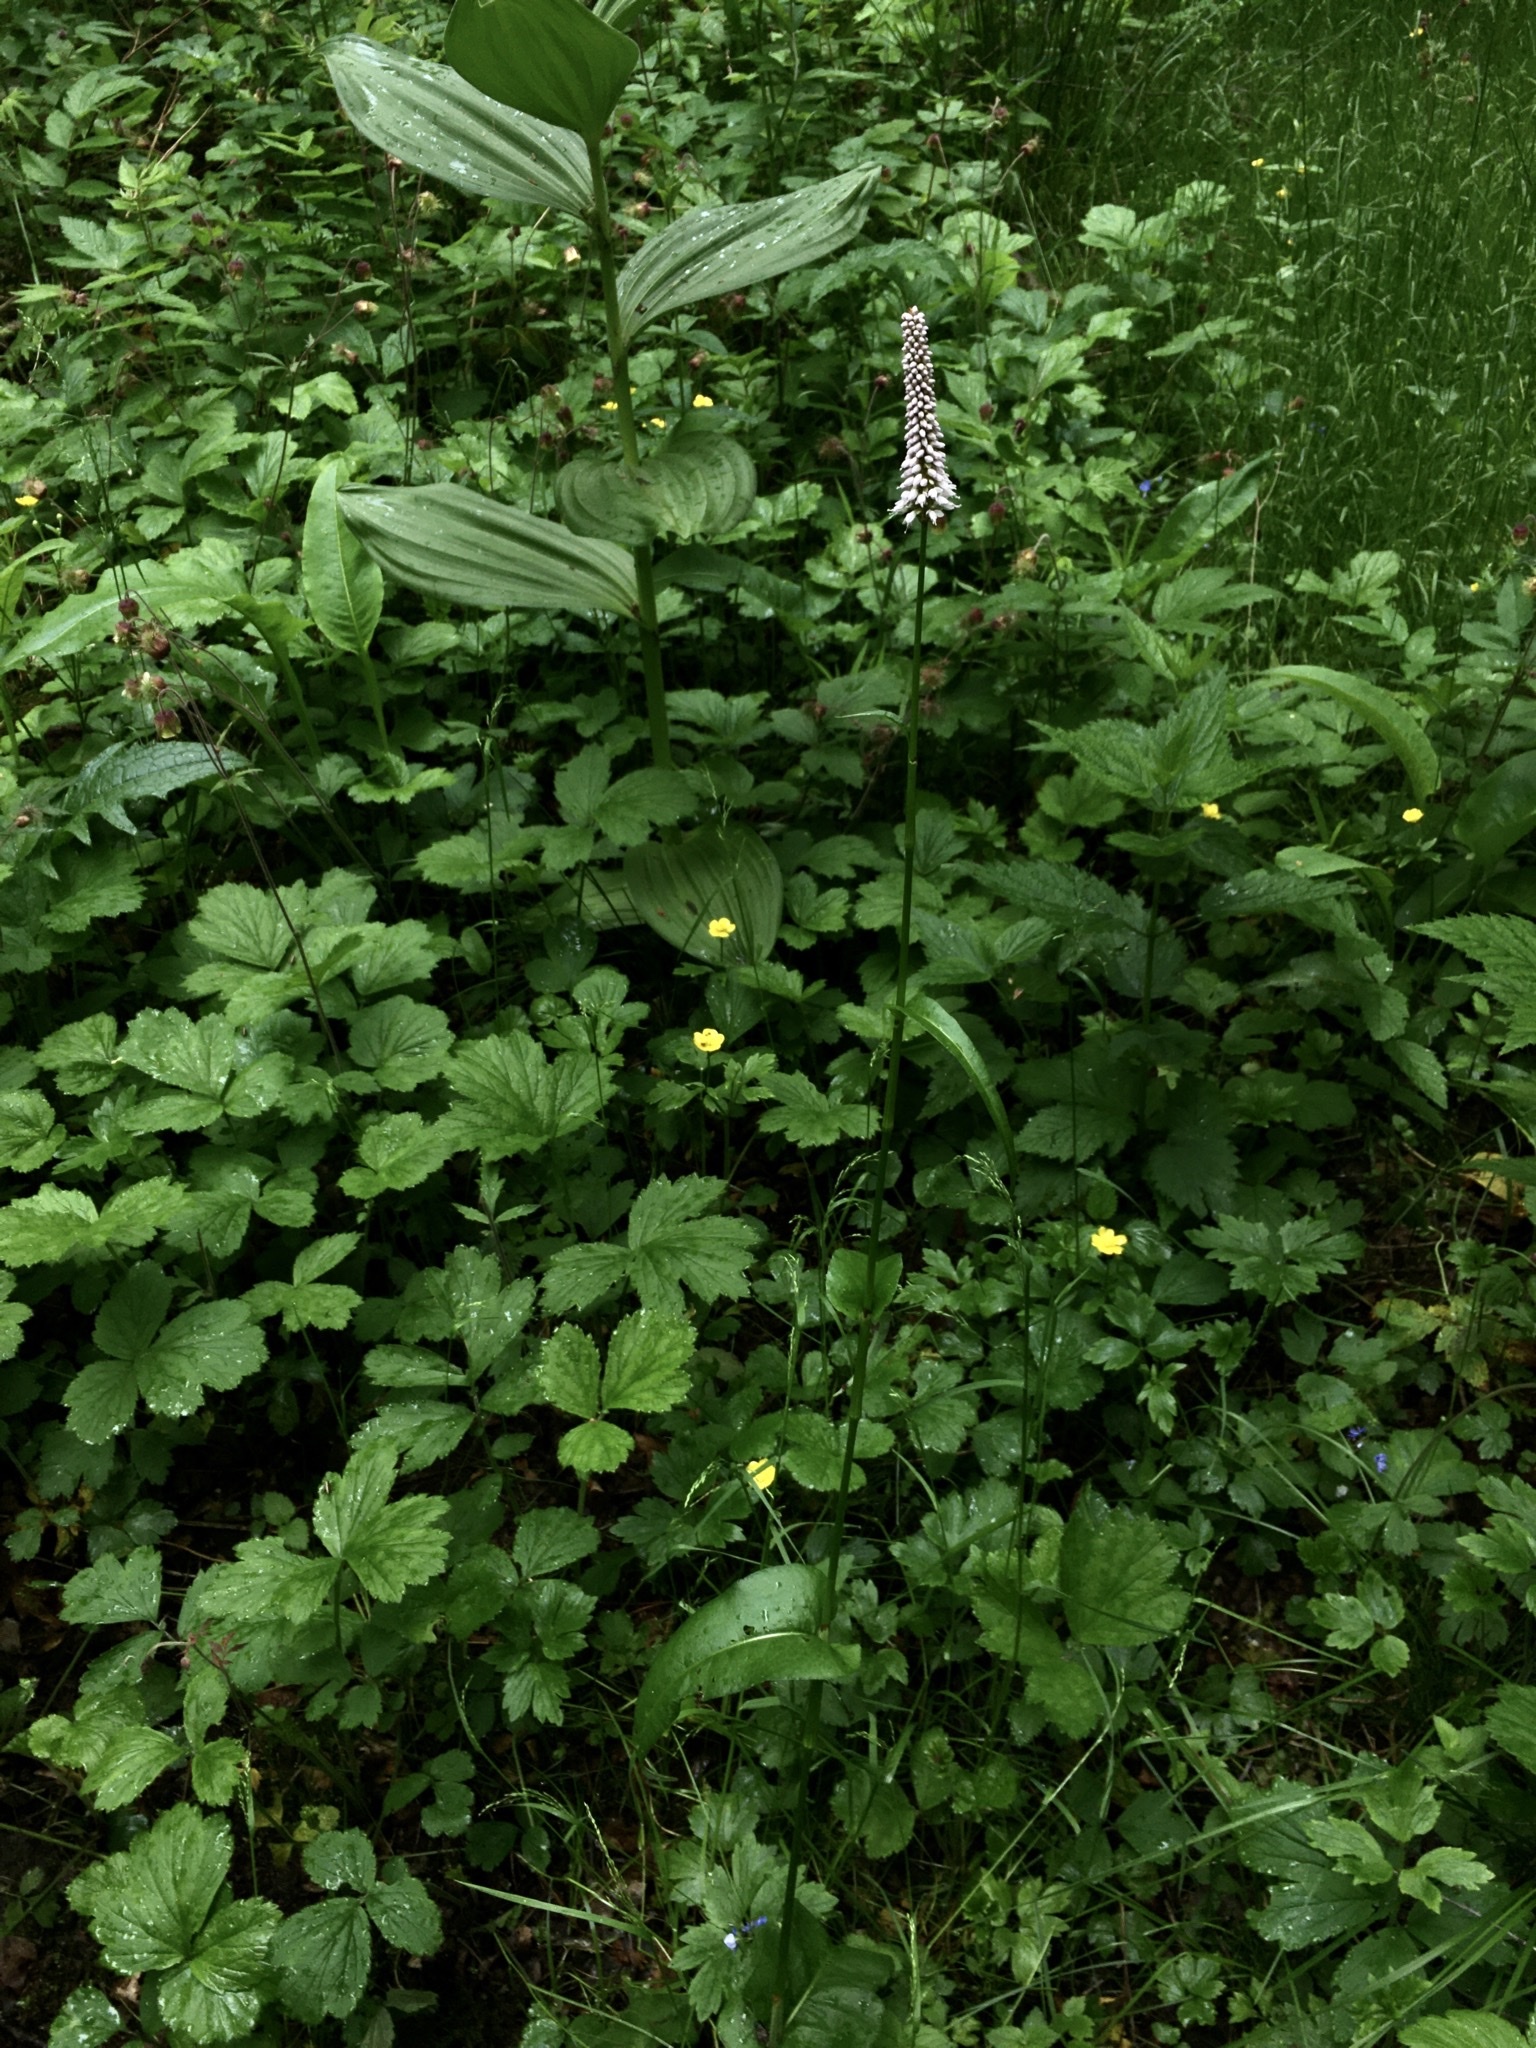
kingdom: Plantae
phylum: Tracheophyta
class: Magnoliopsida
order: Caryophyllales
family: Polygonaceae
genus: Bistorta
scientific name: Bistorta officinalis
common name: Common bistort
